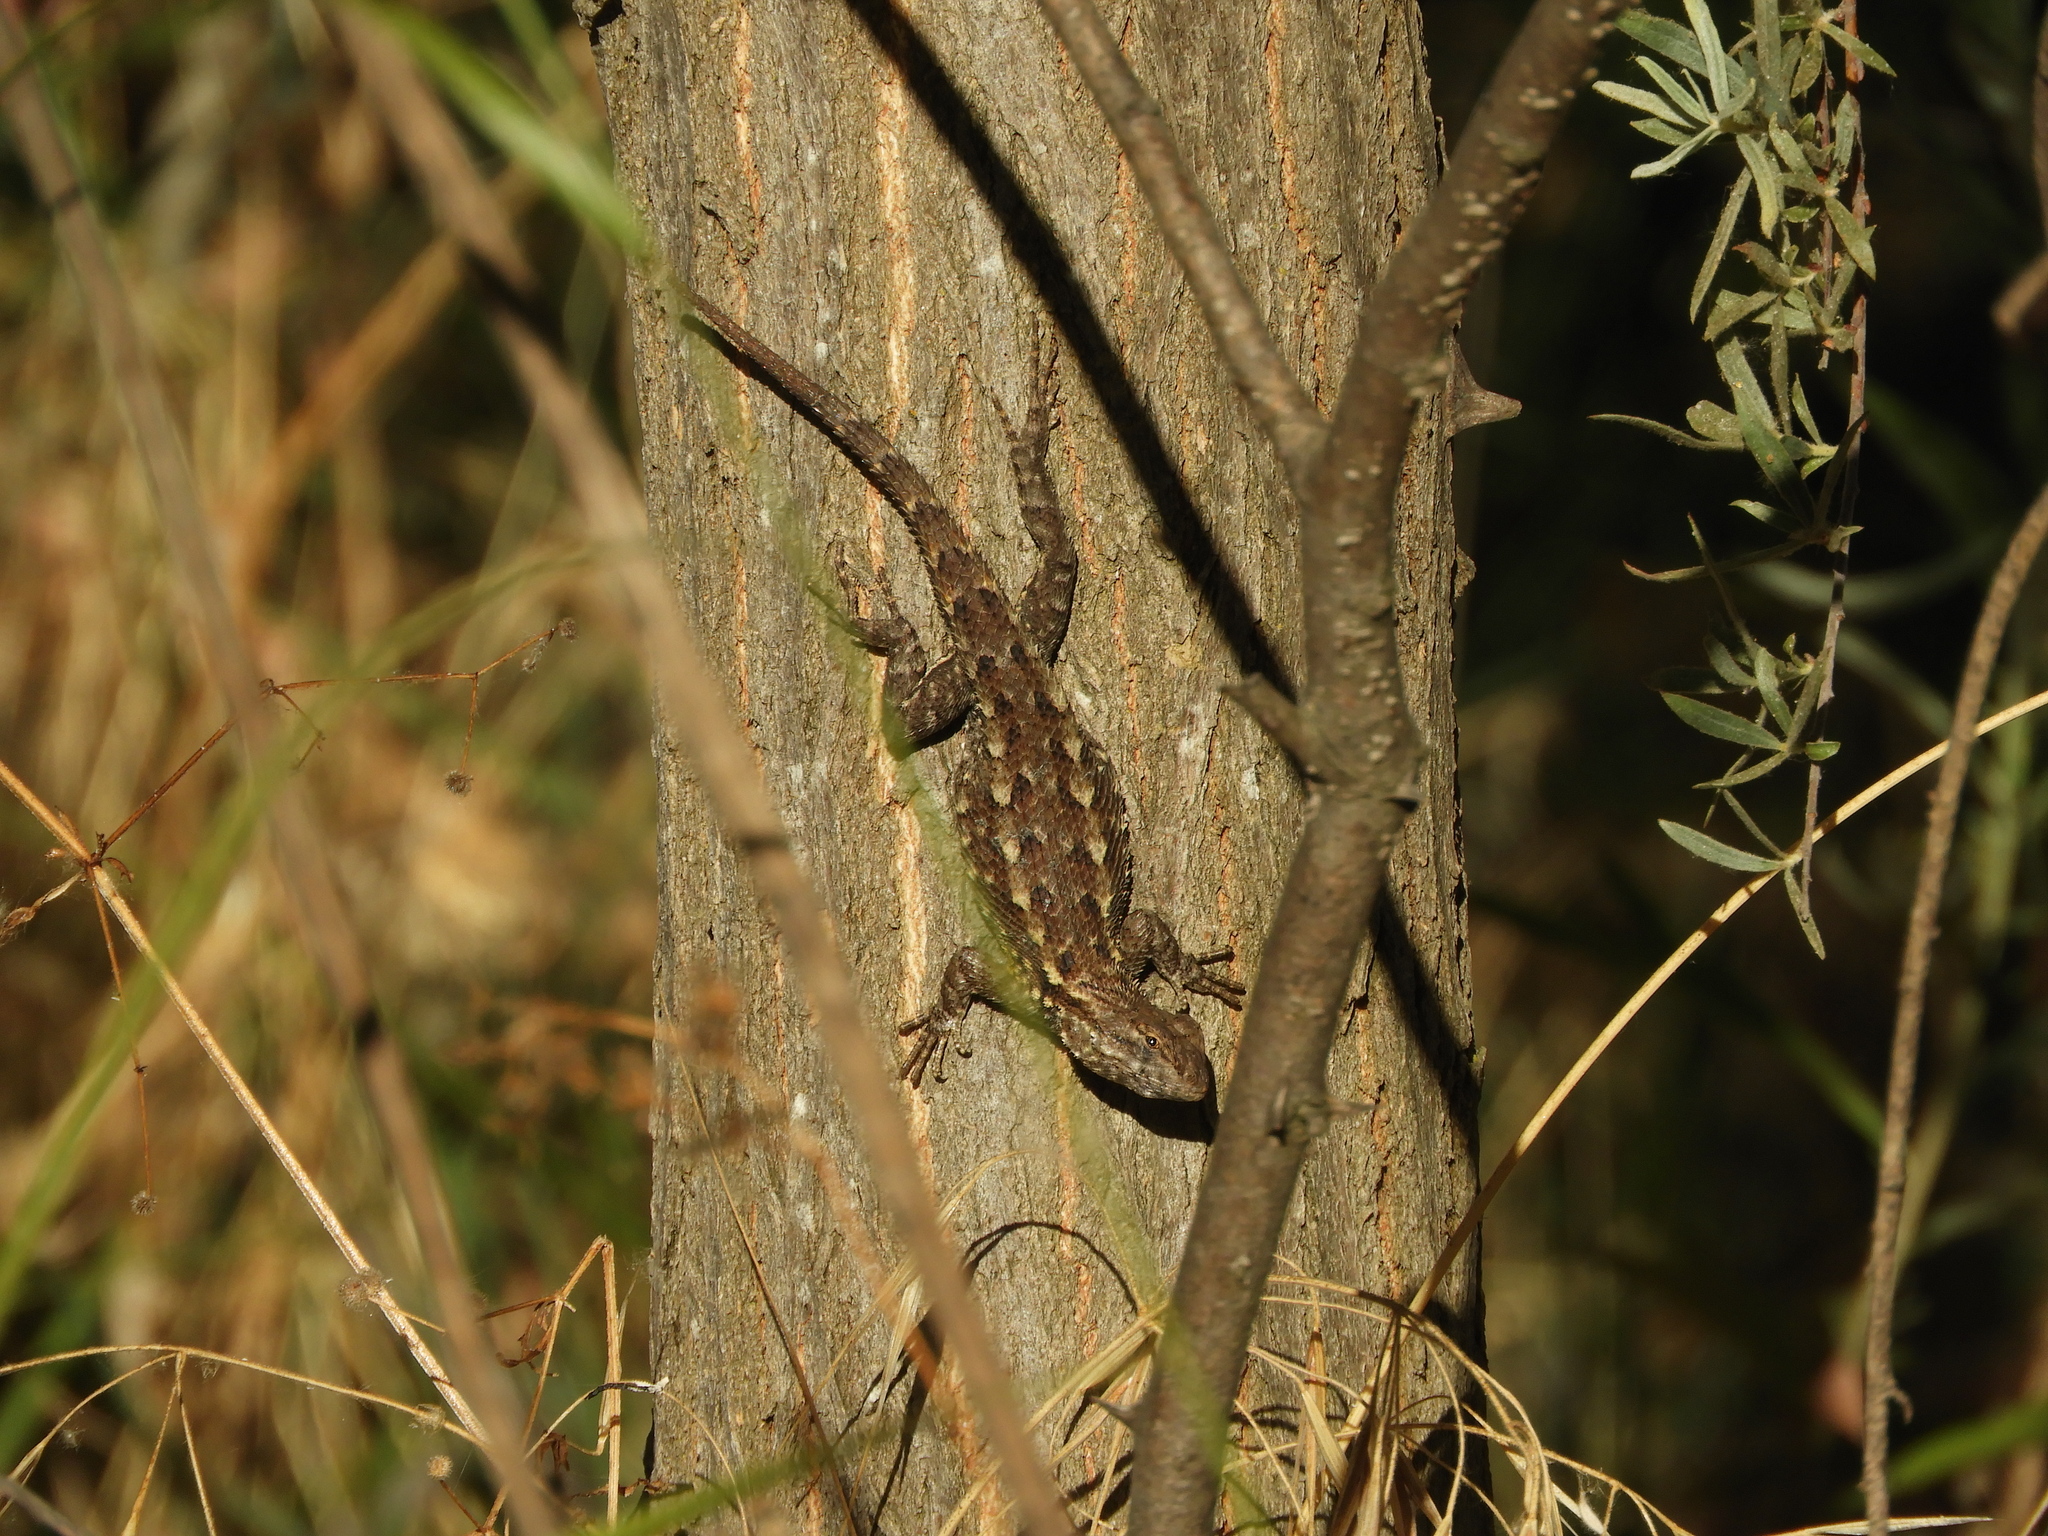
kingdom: Animalia
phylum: Chordata
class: Squamata
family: Phrynosomatidae
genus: Sceloporus
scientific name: Sceloporus occidentalis
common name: Western fence lizard
